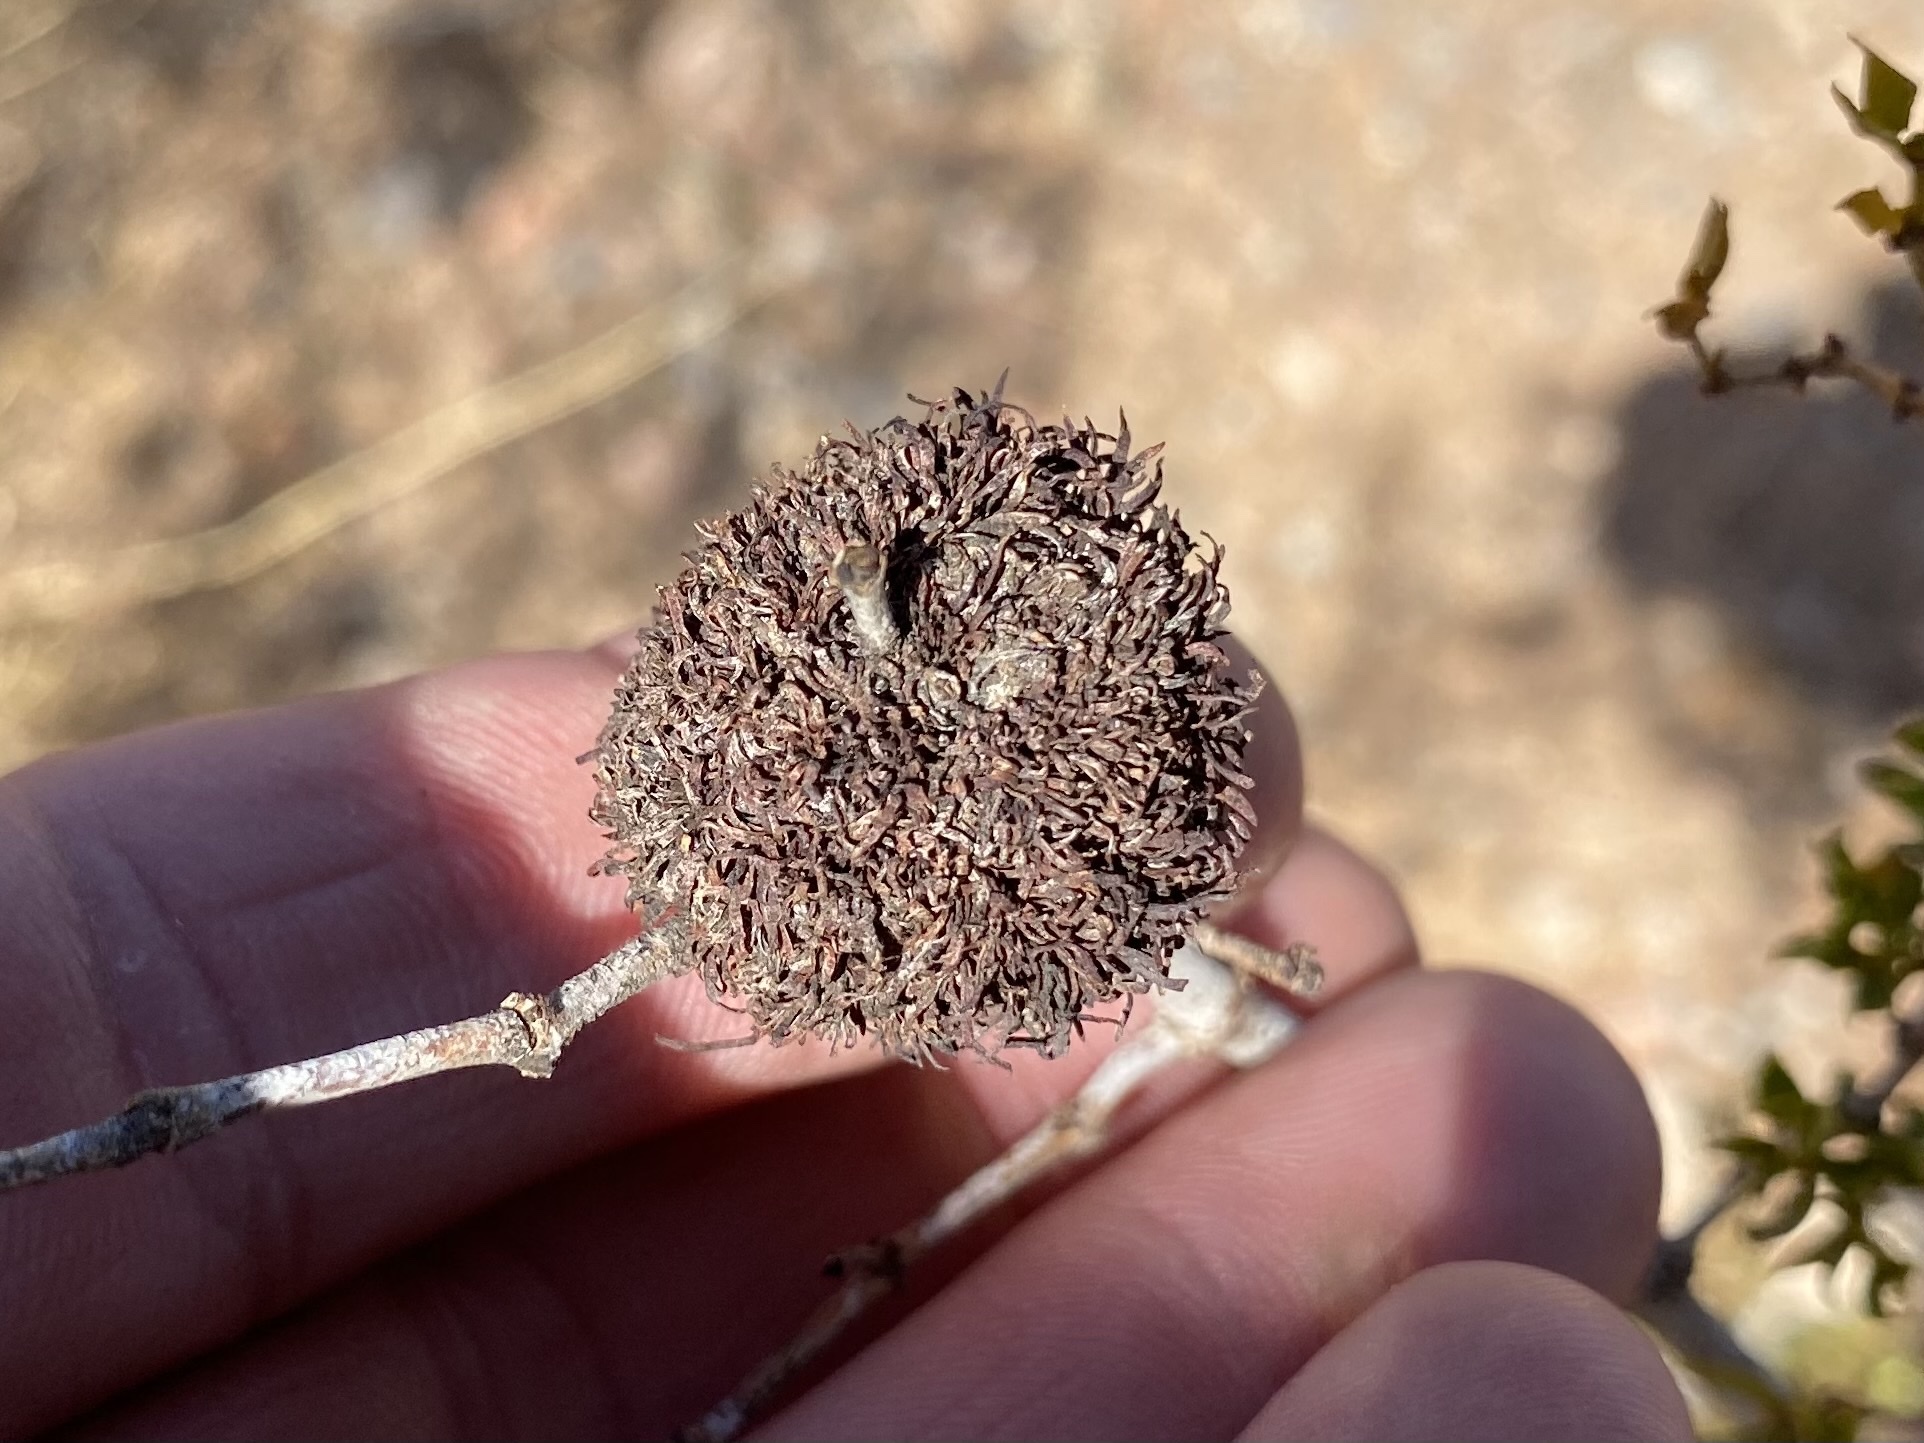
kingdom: Animalia
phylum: Arthropoda
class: Insecta
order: Diptera
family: Cecidomyiidae
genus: Asphondylia
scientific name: Asphondylia auripila
